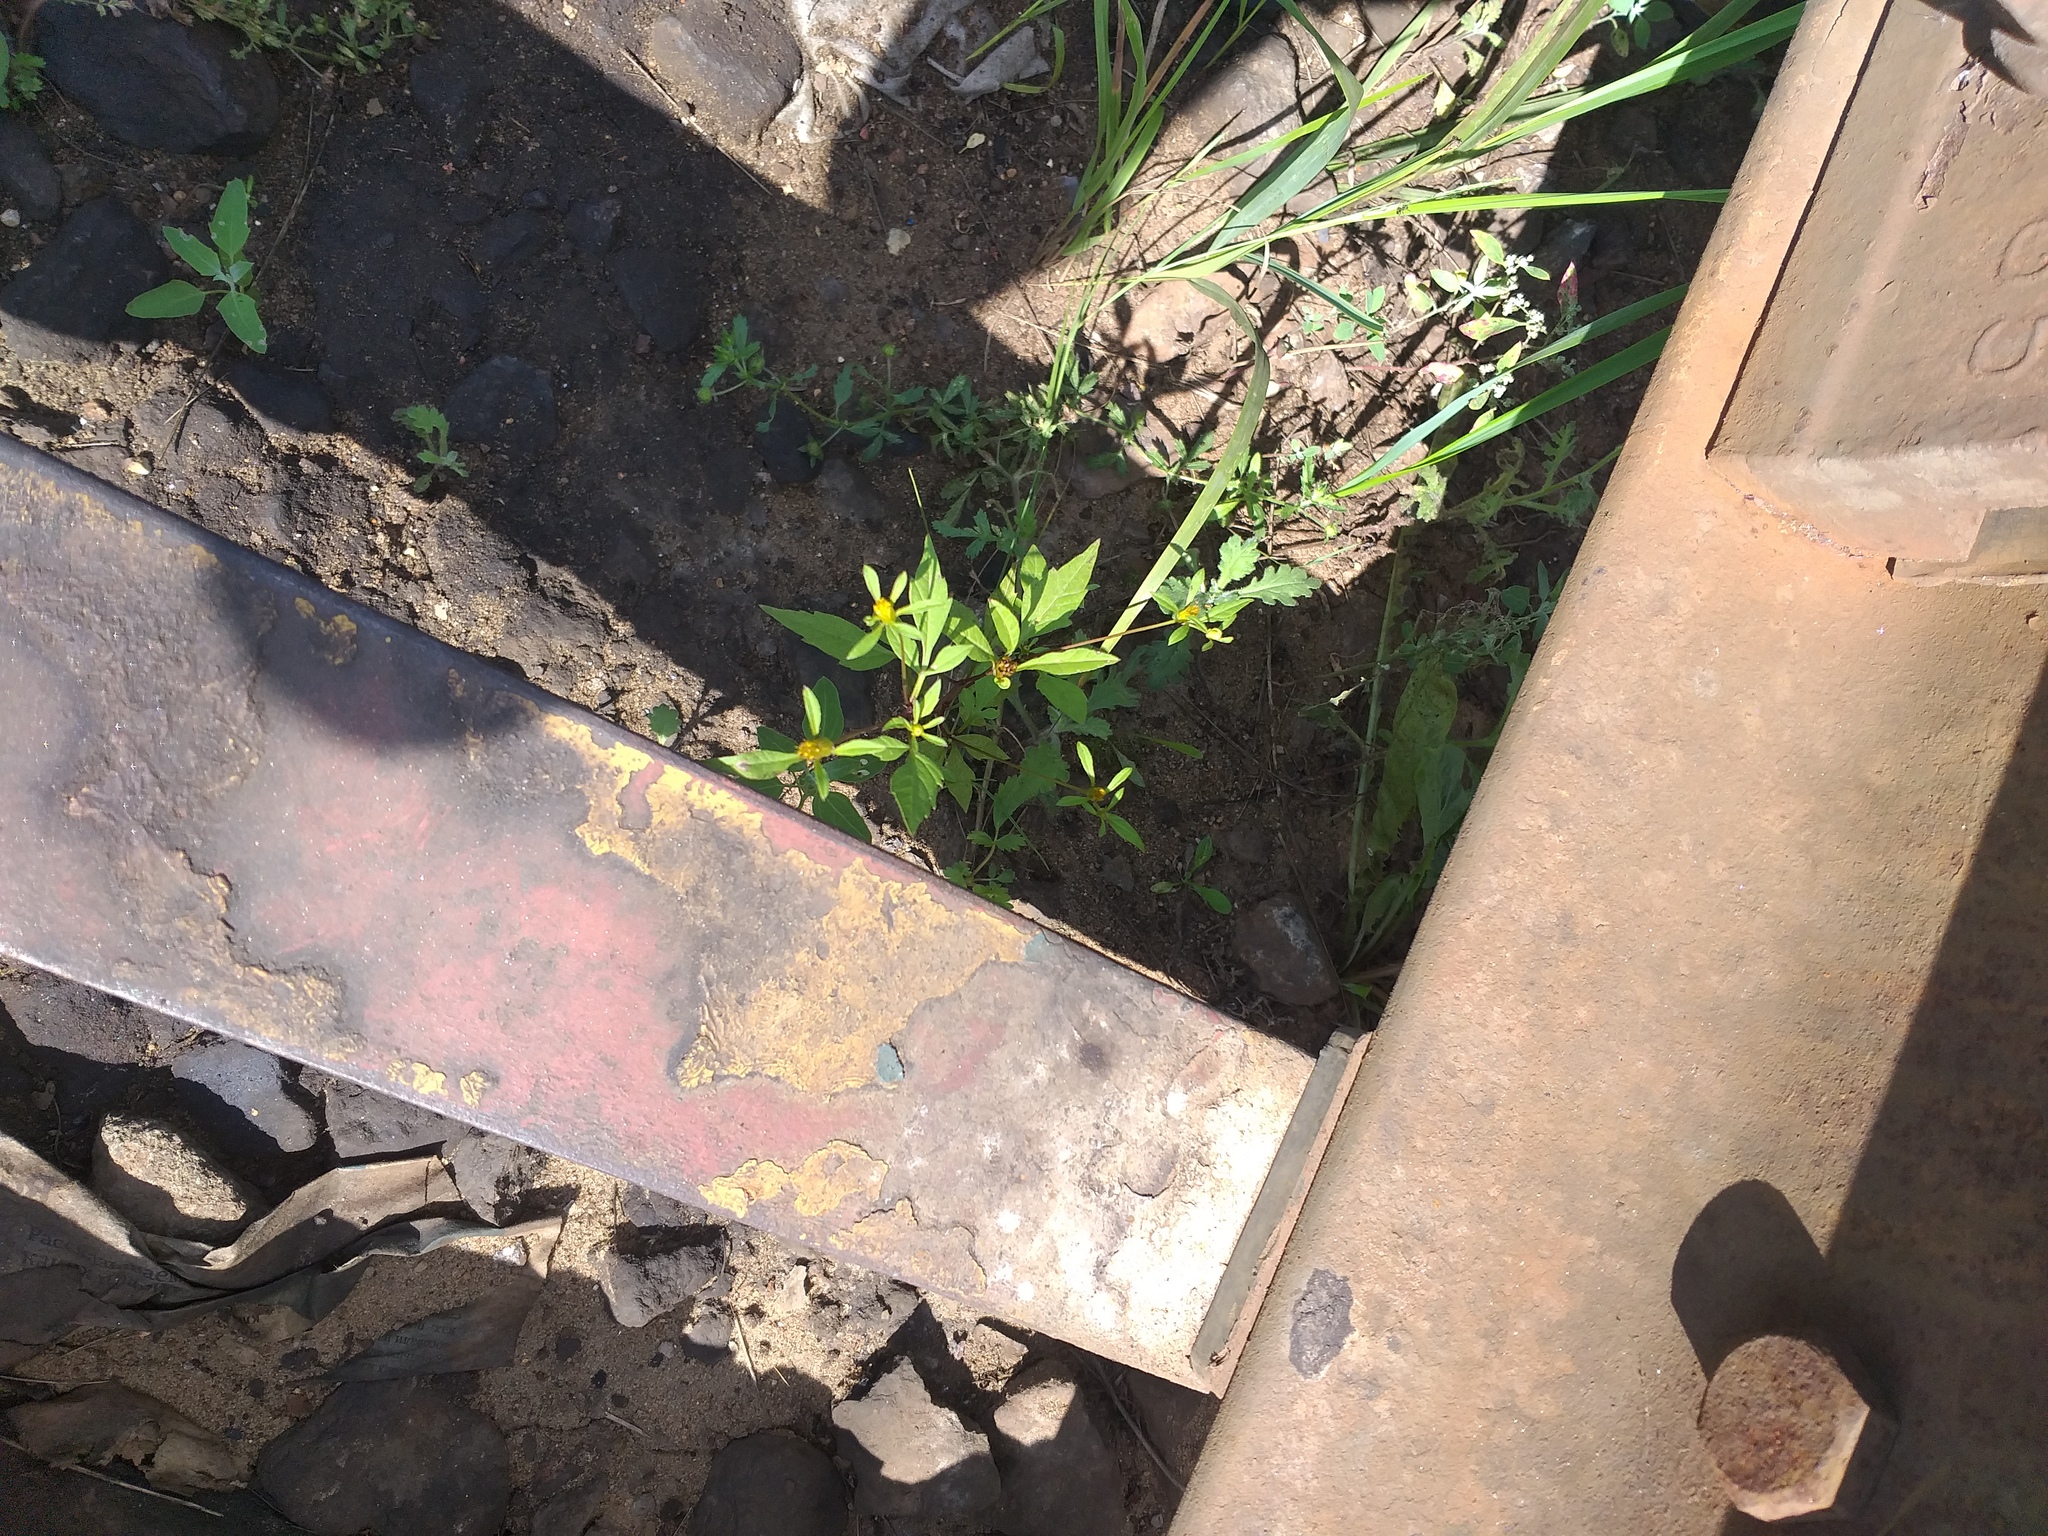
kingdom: Plantae
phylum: Tracheophyta
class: Magnoliopsida
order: Asterales
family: Asteraceae
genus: Bidens
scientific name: Bidens frondosa
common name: Beggarticks
